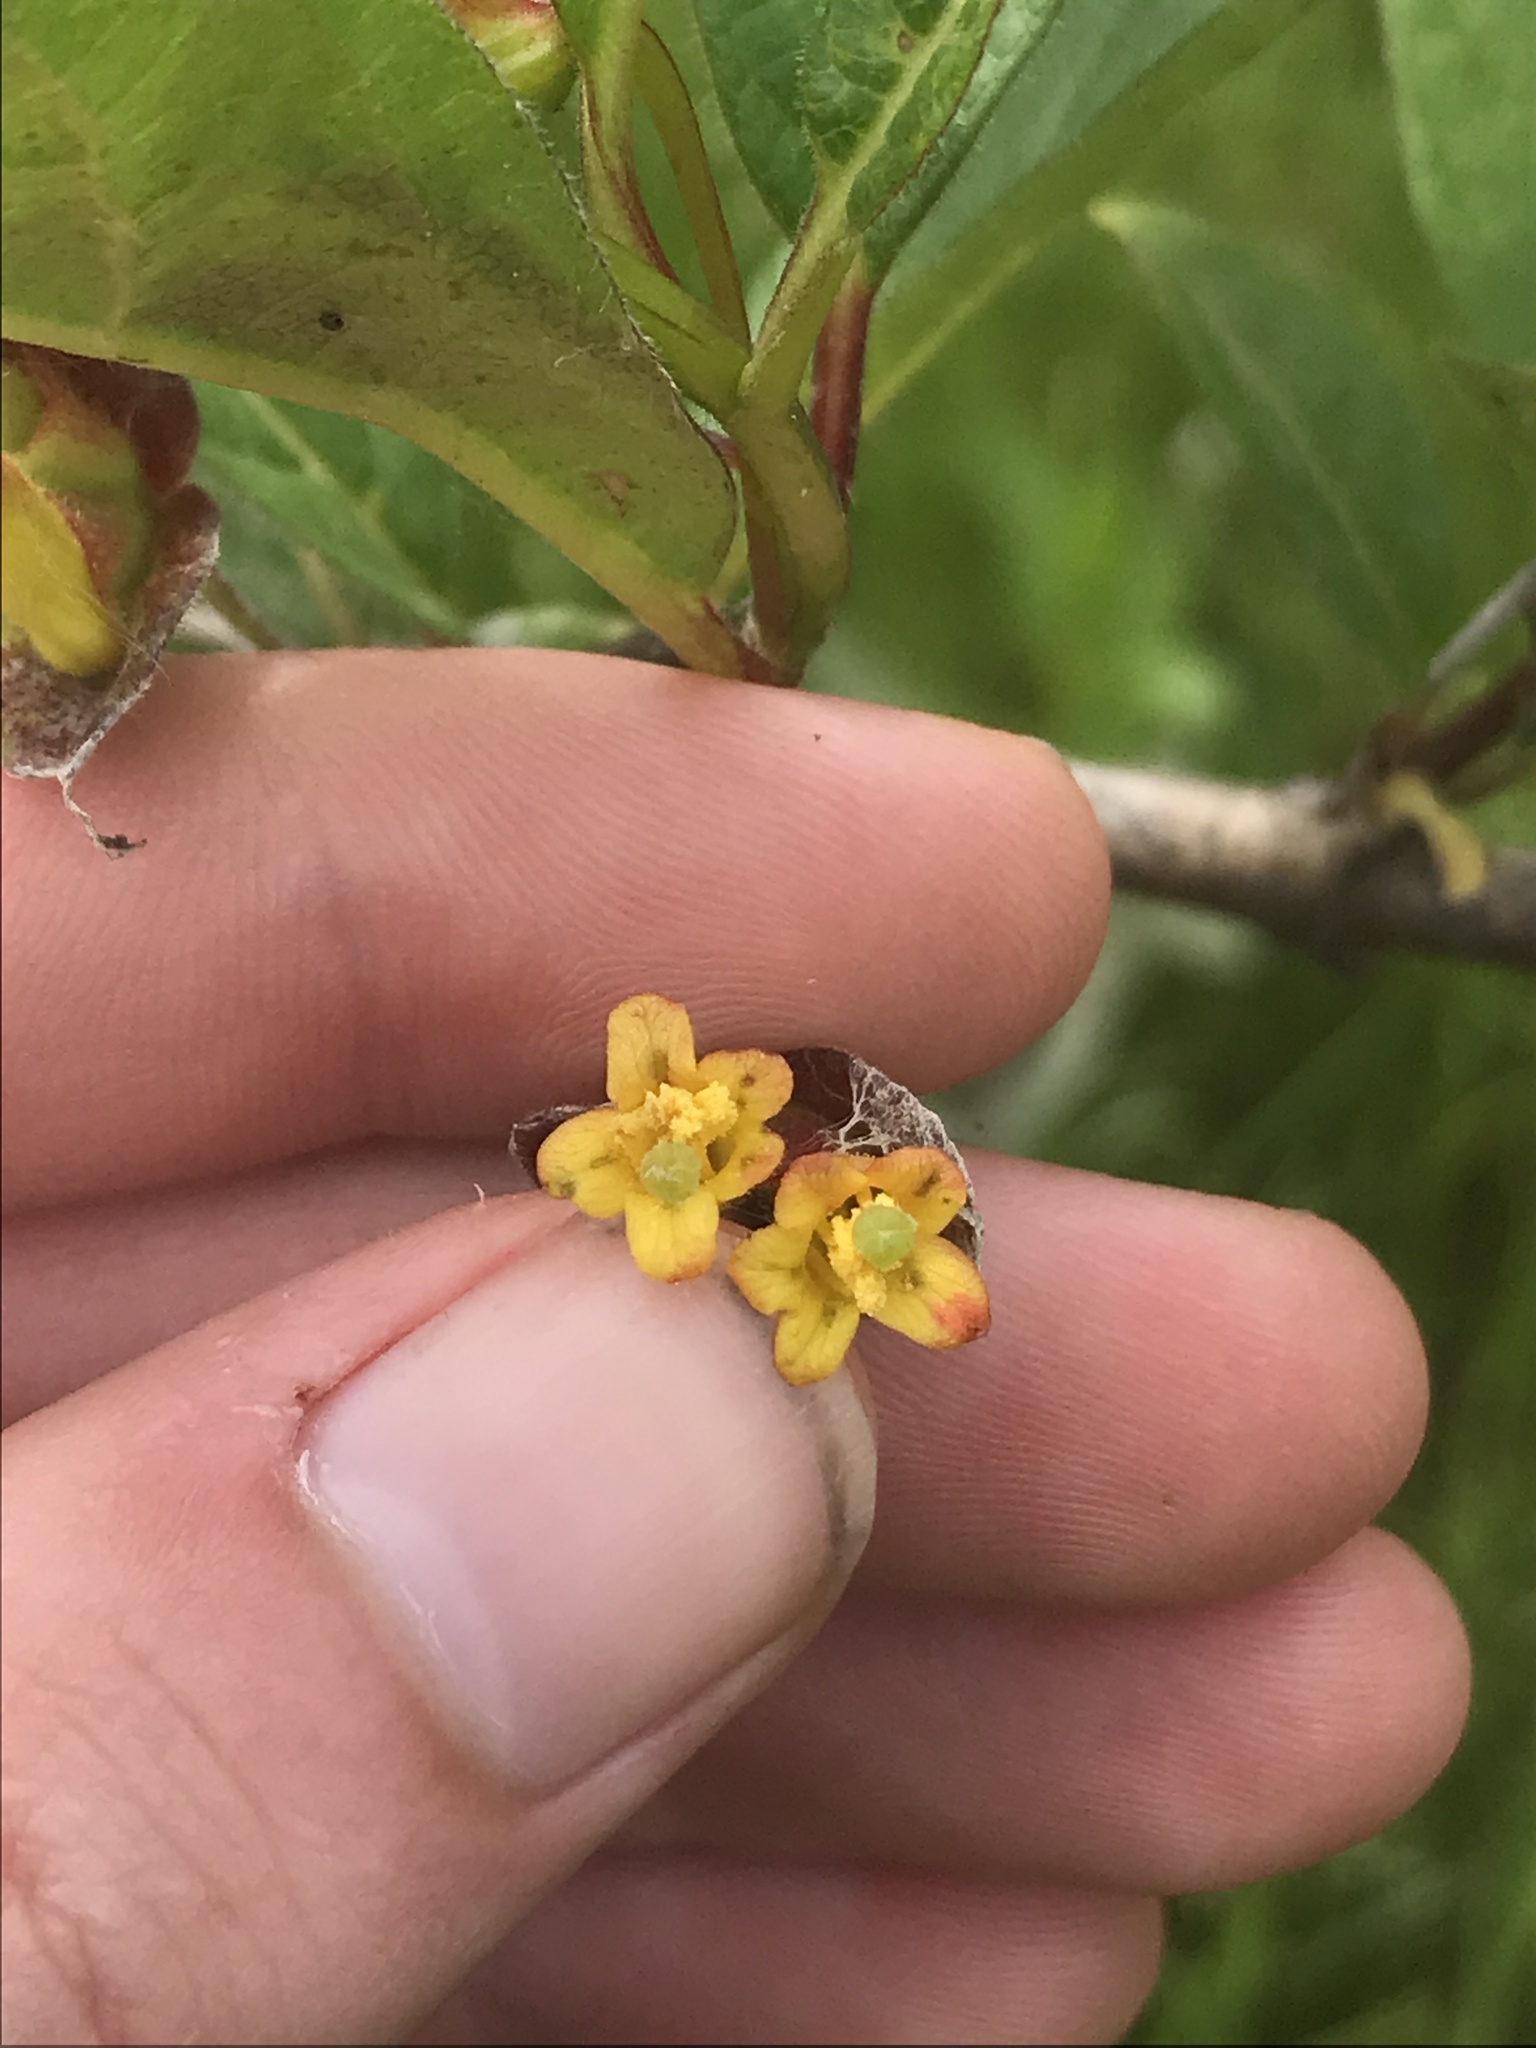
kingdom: Plantae
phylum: Tracheophyta
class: Magnoliopsida
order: Dipsacales
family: Caprifoliaceae
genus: Lonicera
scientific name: Lonicera involucrata
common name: Californian honeysuckle
